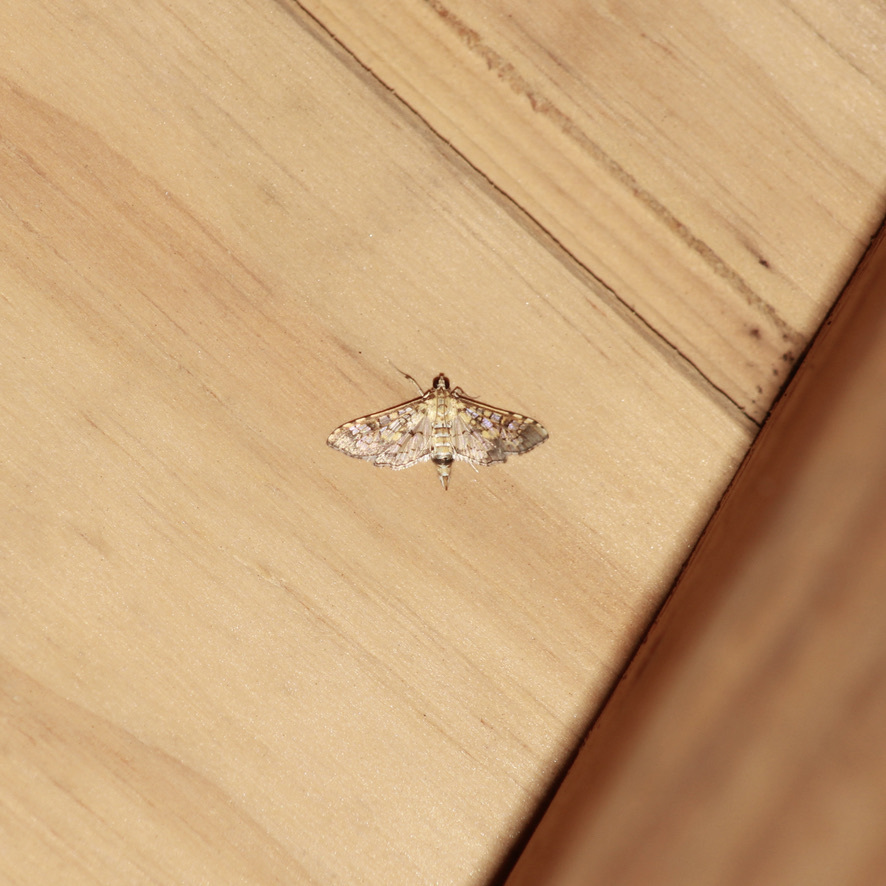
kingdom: Animalia
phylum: Arthropoda
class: Insecta
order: Lepidoptera
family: Crambidae
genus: Samea
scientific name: Samea ecclesialis
